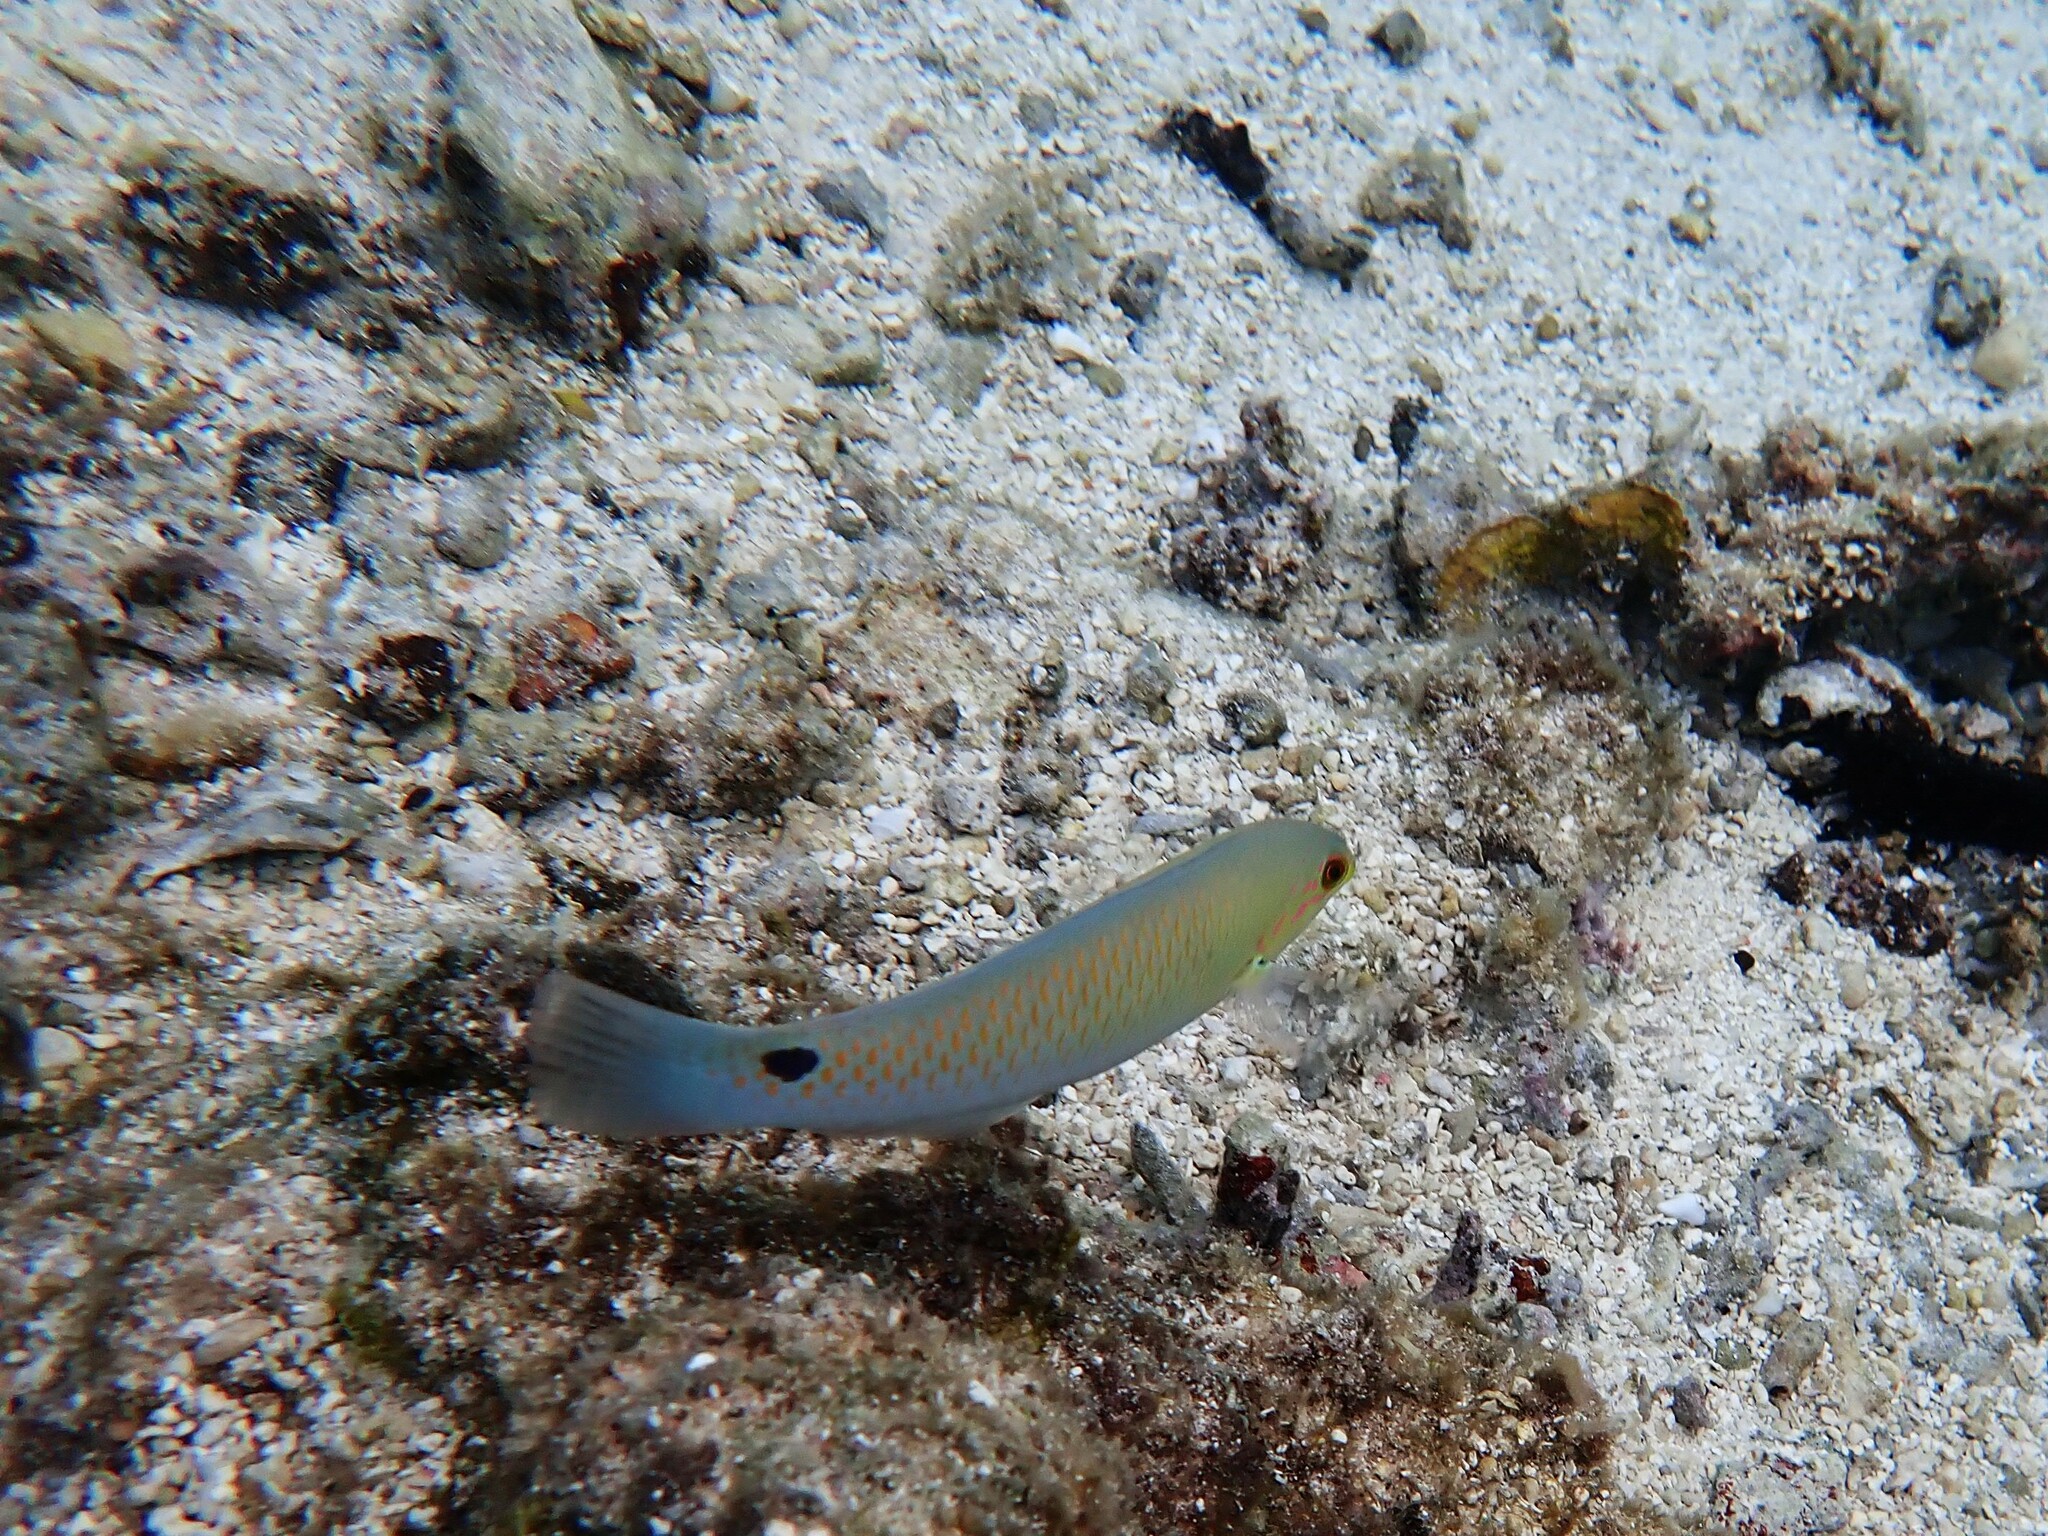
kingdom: Animalia
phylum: Chordata
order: Perciformes
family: Labridae
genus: Halichoeres
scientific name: Halichoeres trimaculatus
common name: Three-spot wrasse
